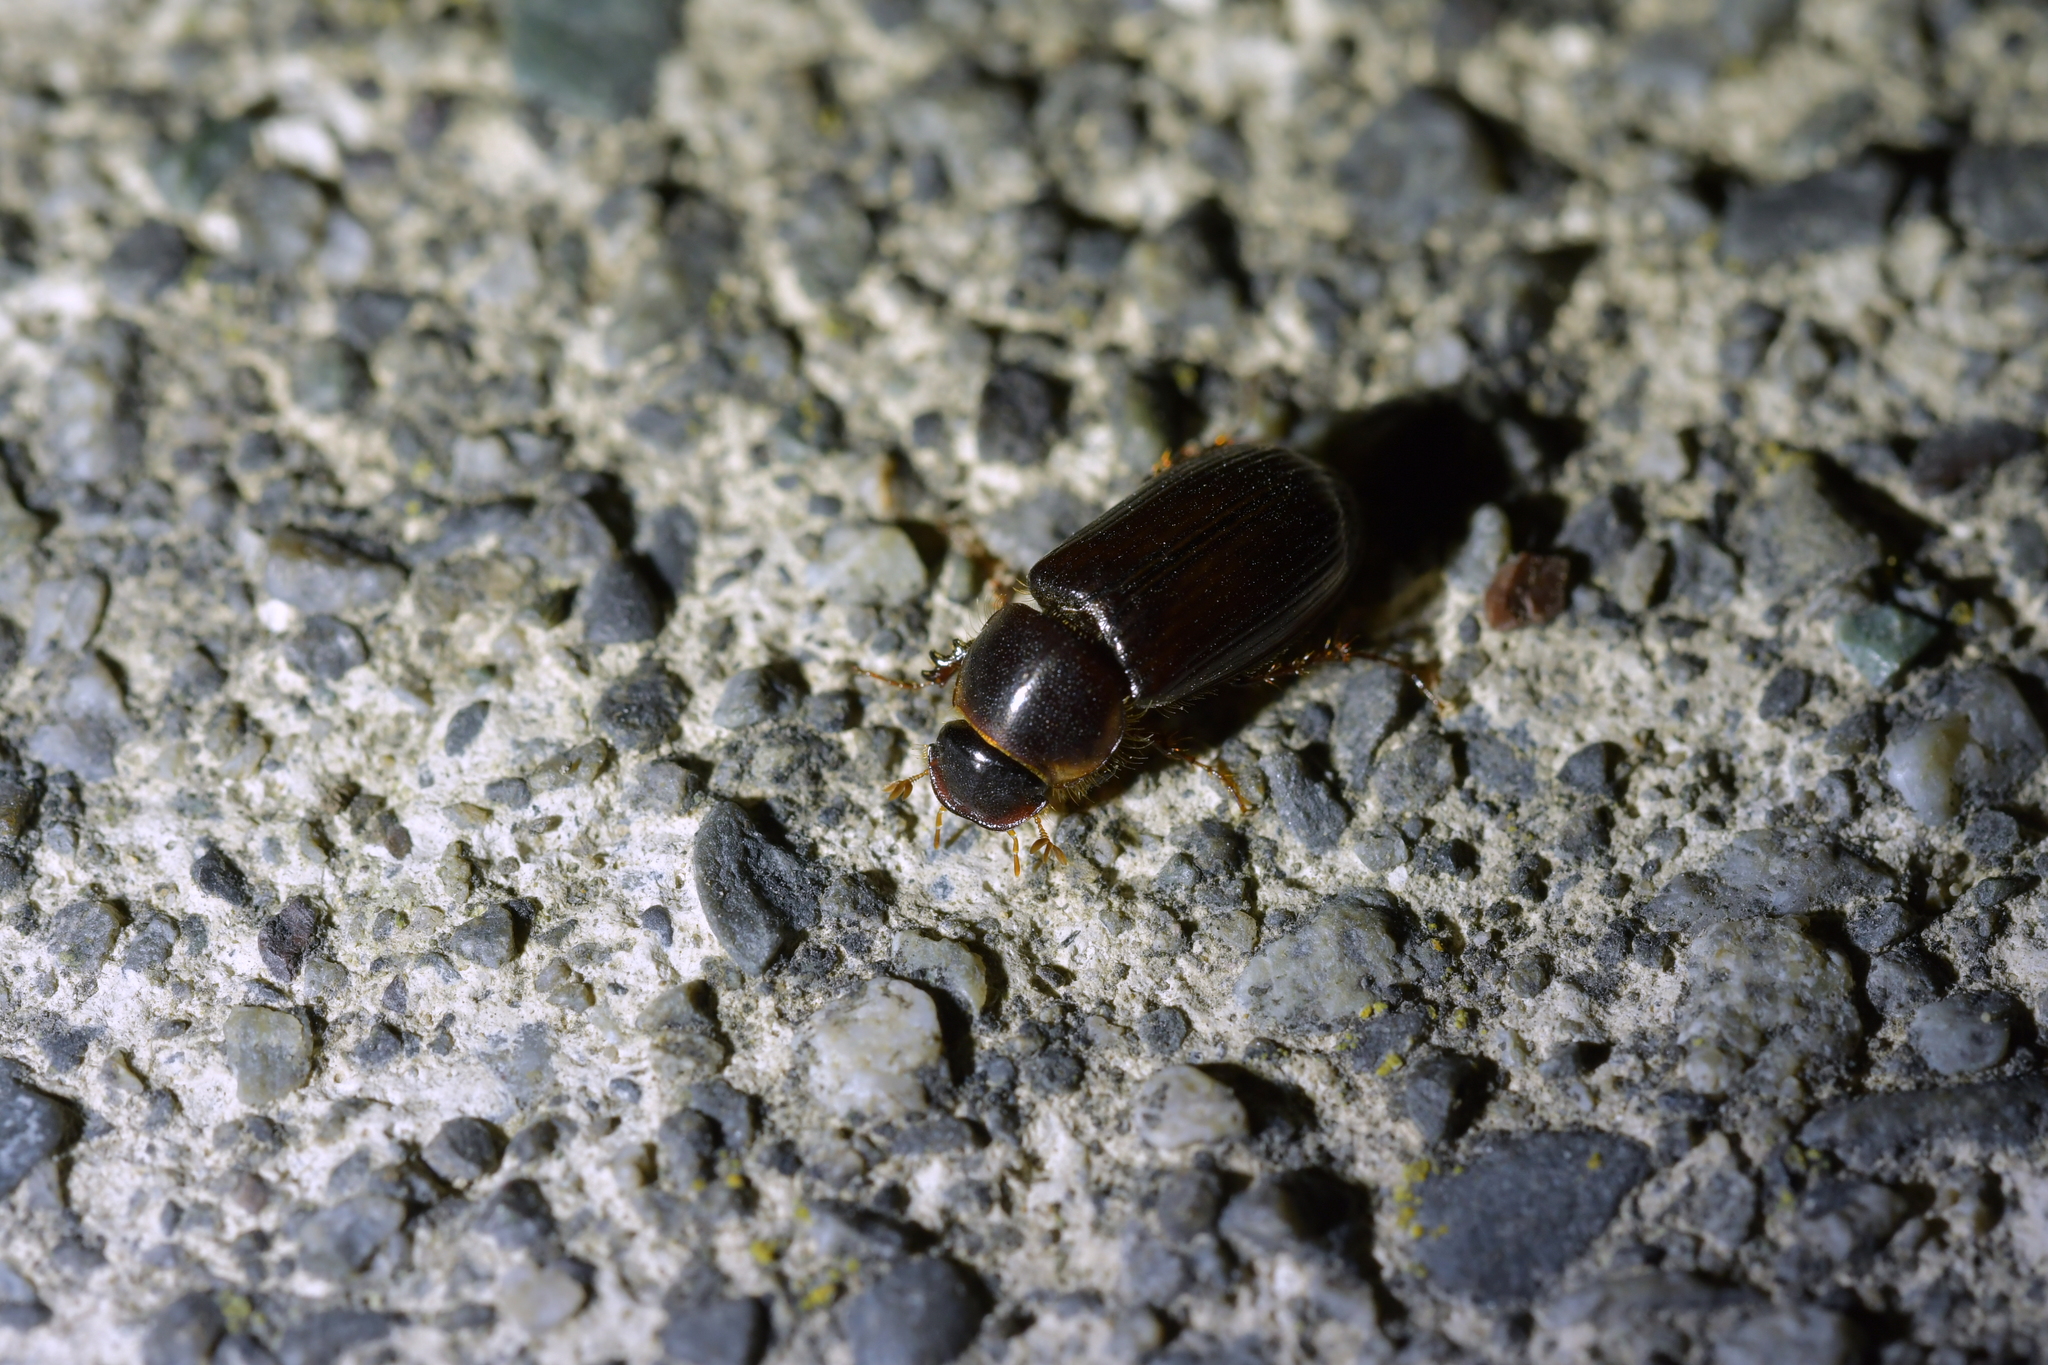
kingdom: Animalia
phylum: Arthropoda
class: Insecta
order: Coleoptera
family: Scarabaeidae
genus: Acrossidius
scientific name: Acrossidius tasmaniae
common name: Black-headed pasture cockchafer
